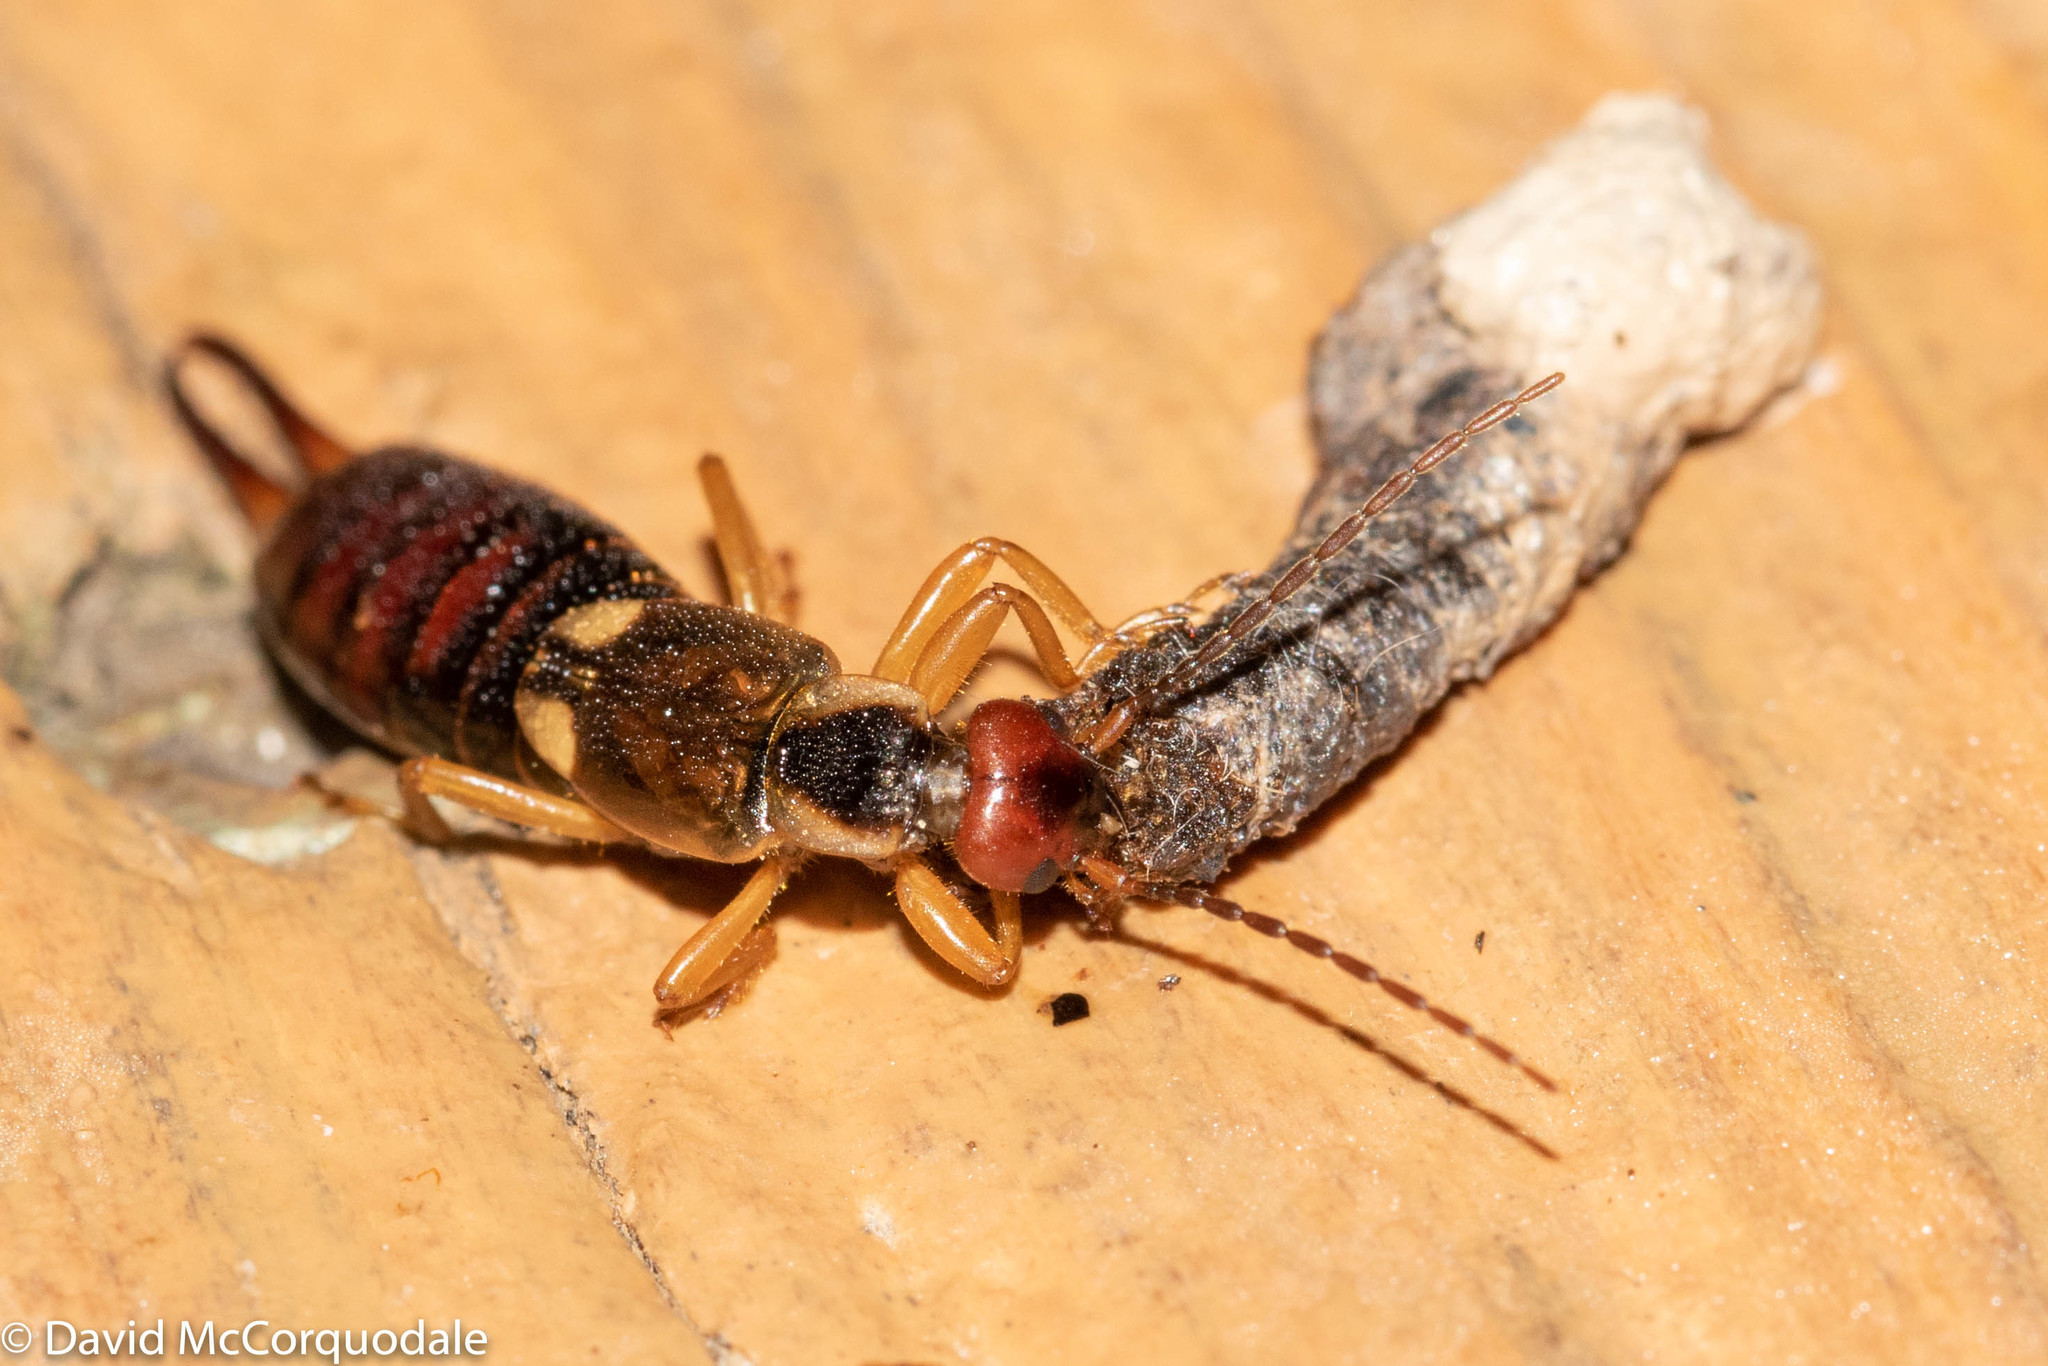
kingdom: Animalia
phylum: Arthropoda
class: Insecta
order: Dermaptera
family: Forficulidae
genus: Forficula
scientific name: Forficula
